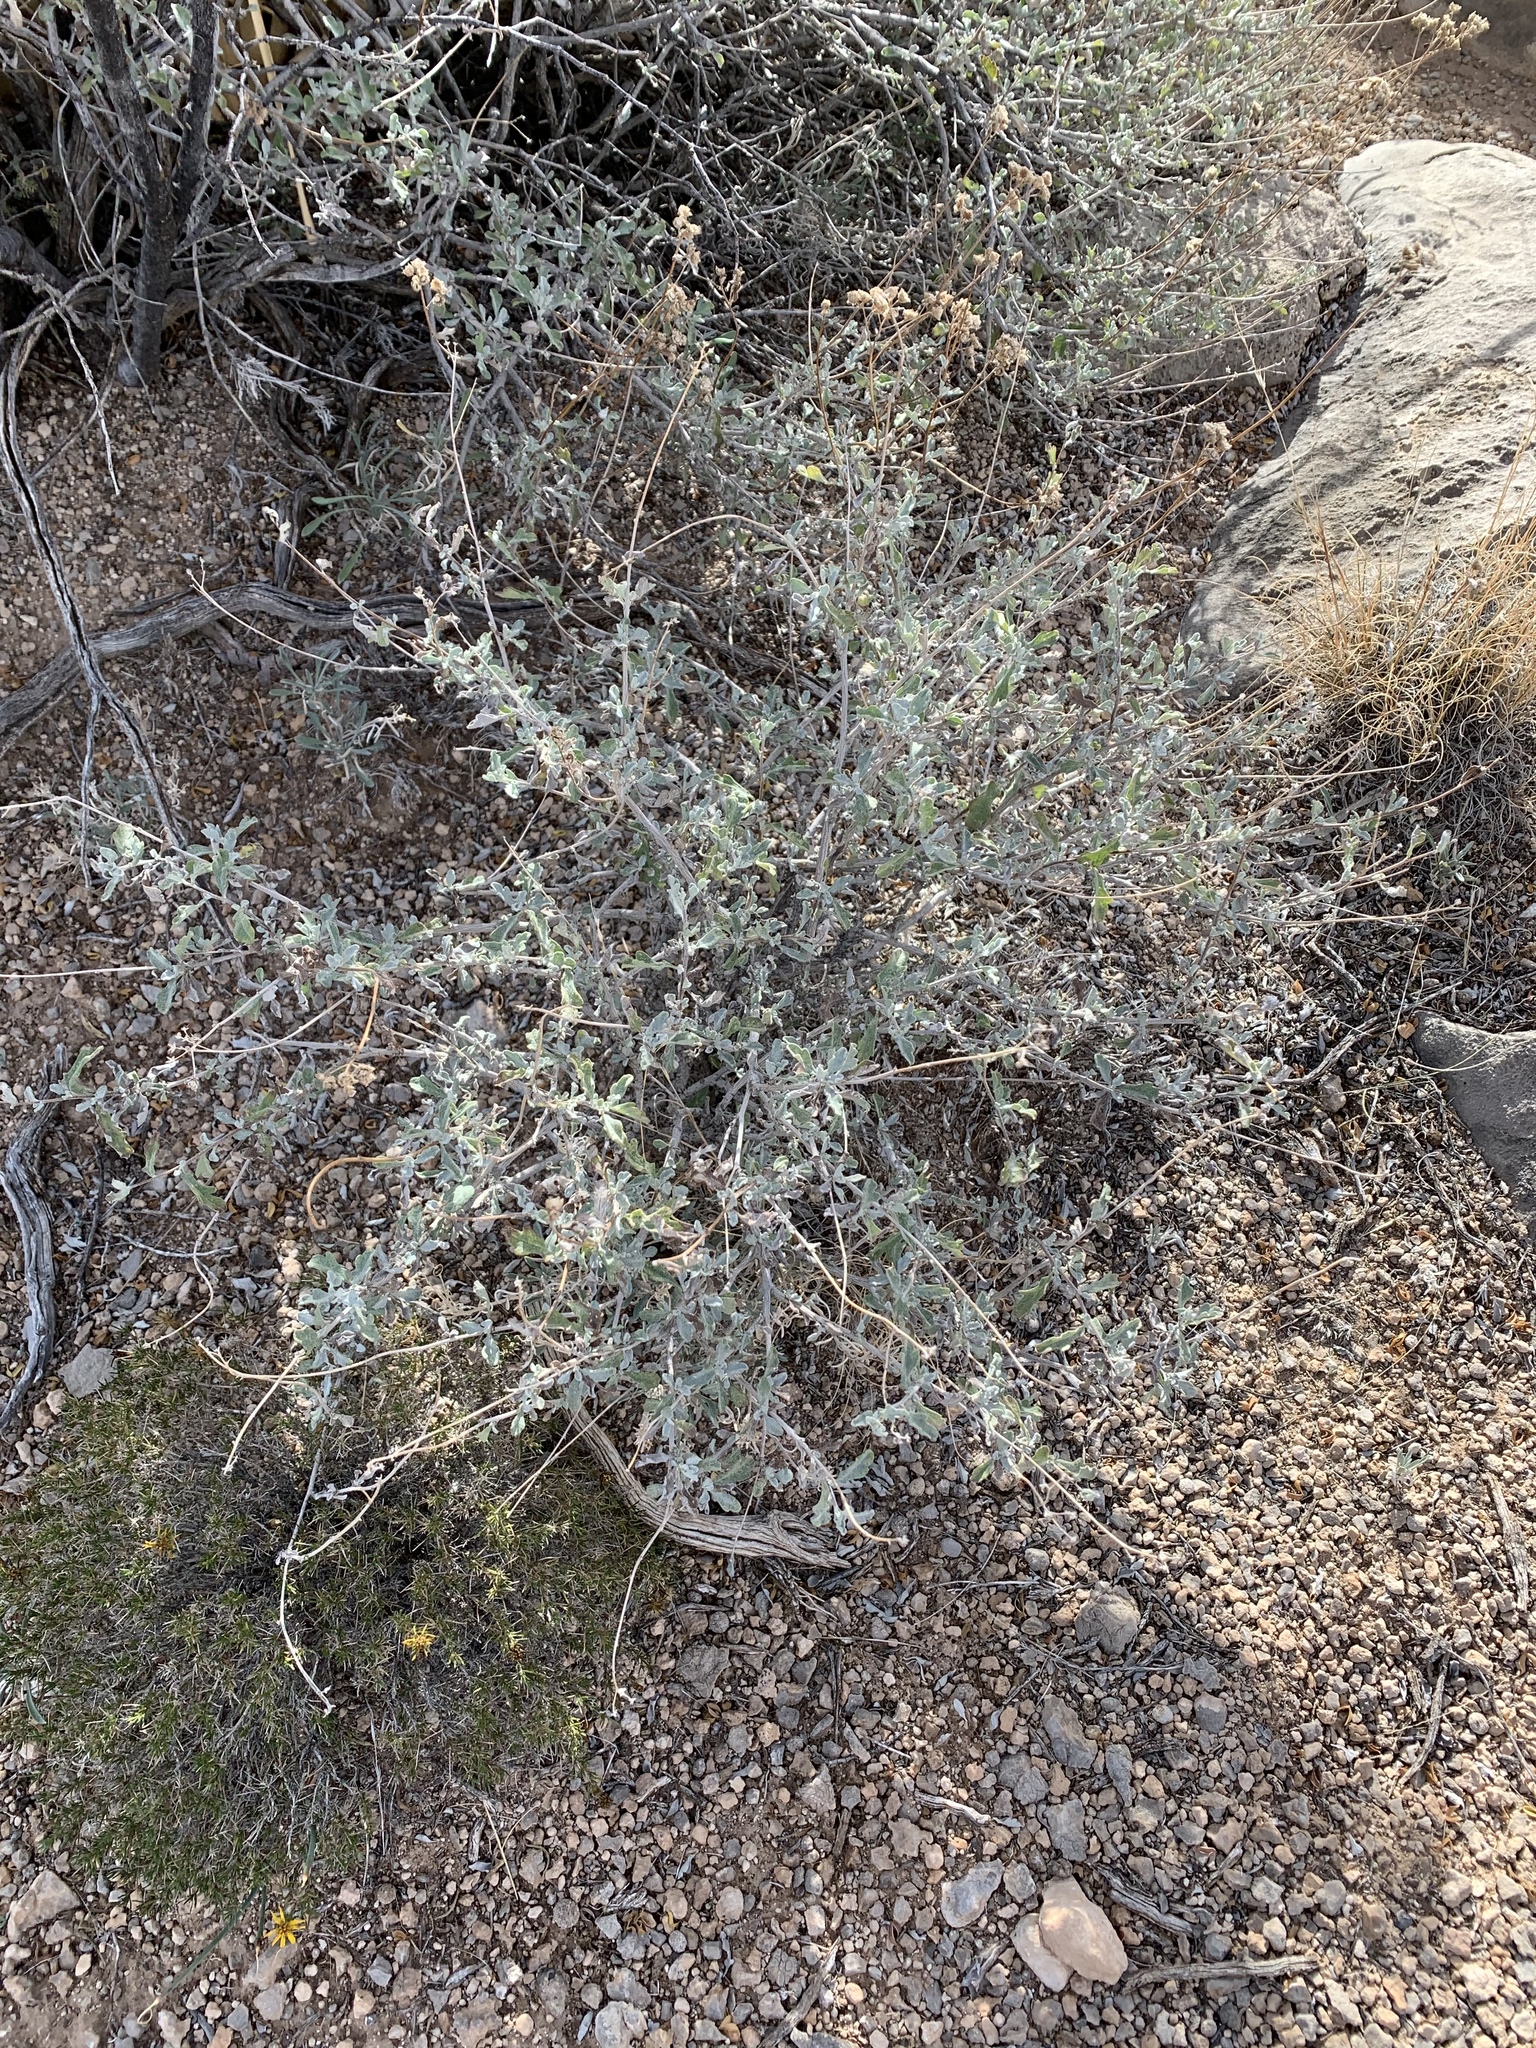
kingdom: Plantae
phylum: Tracheophyta
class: Magnoliopsida
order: Asterales
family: Asteraceae
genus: Parthenium
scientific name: Parthenium incanum
